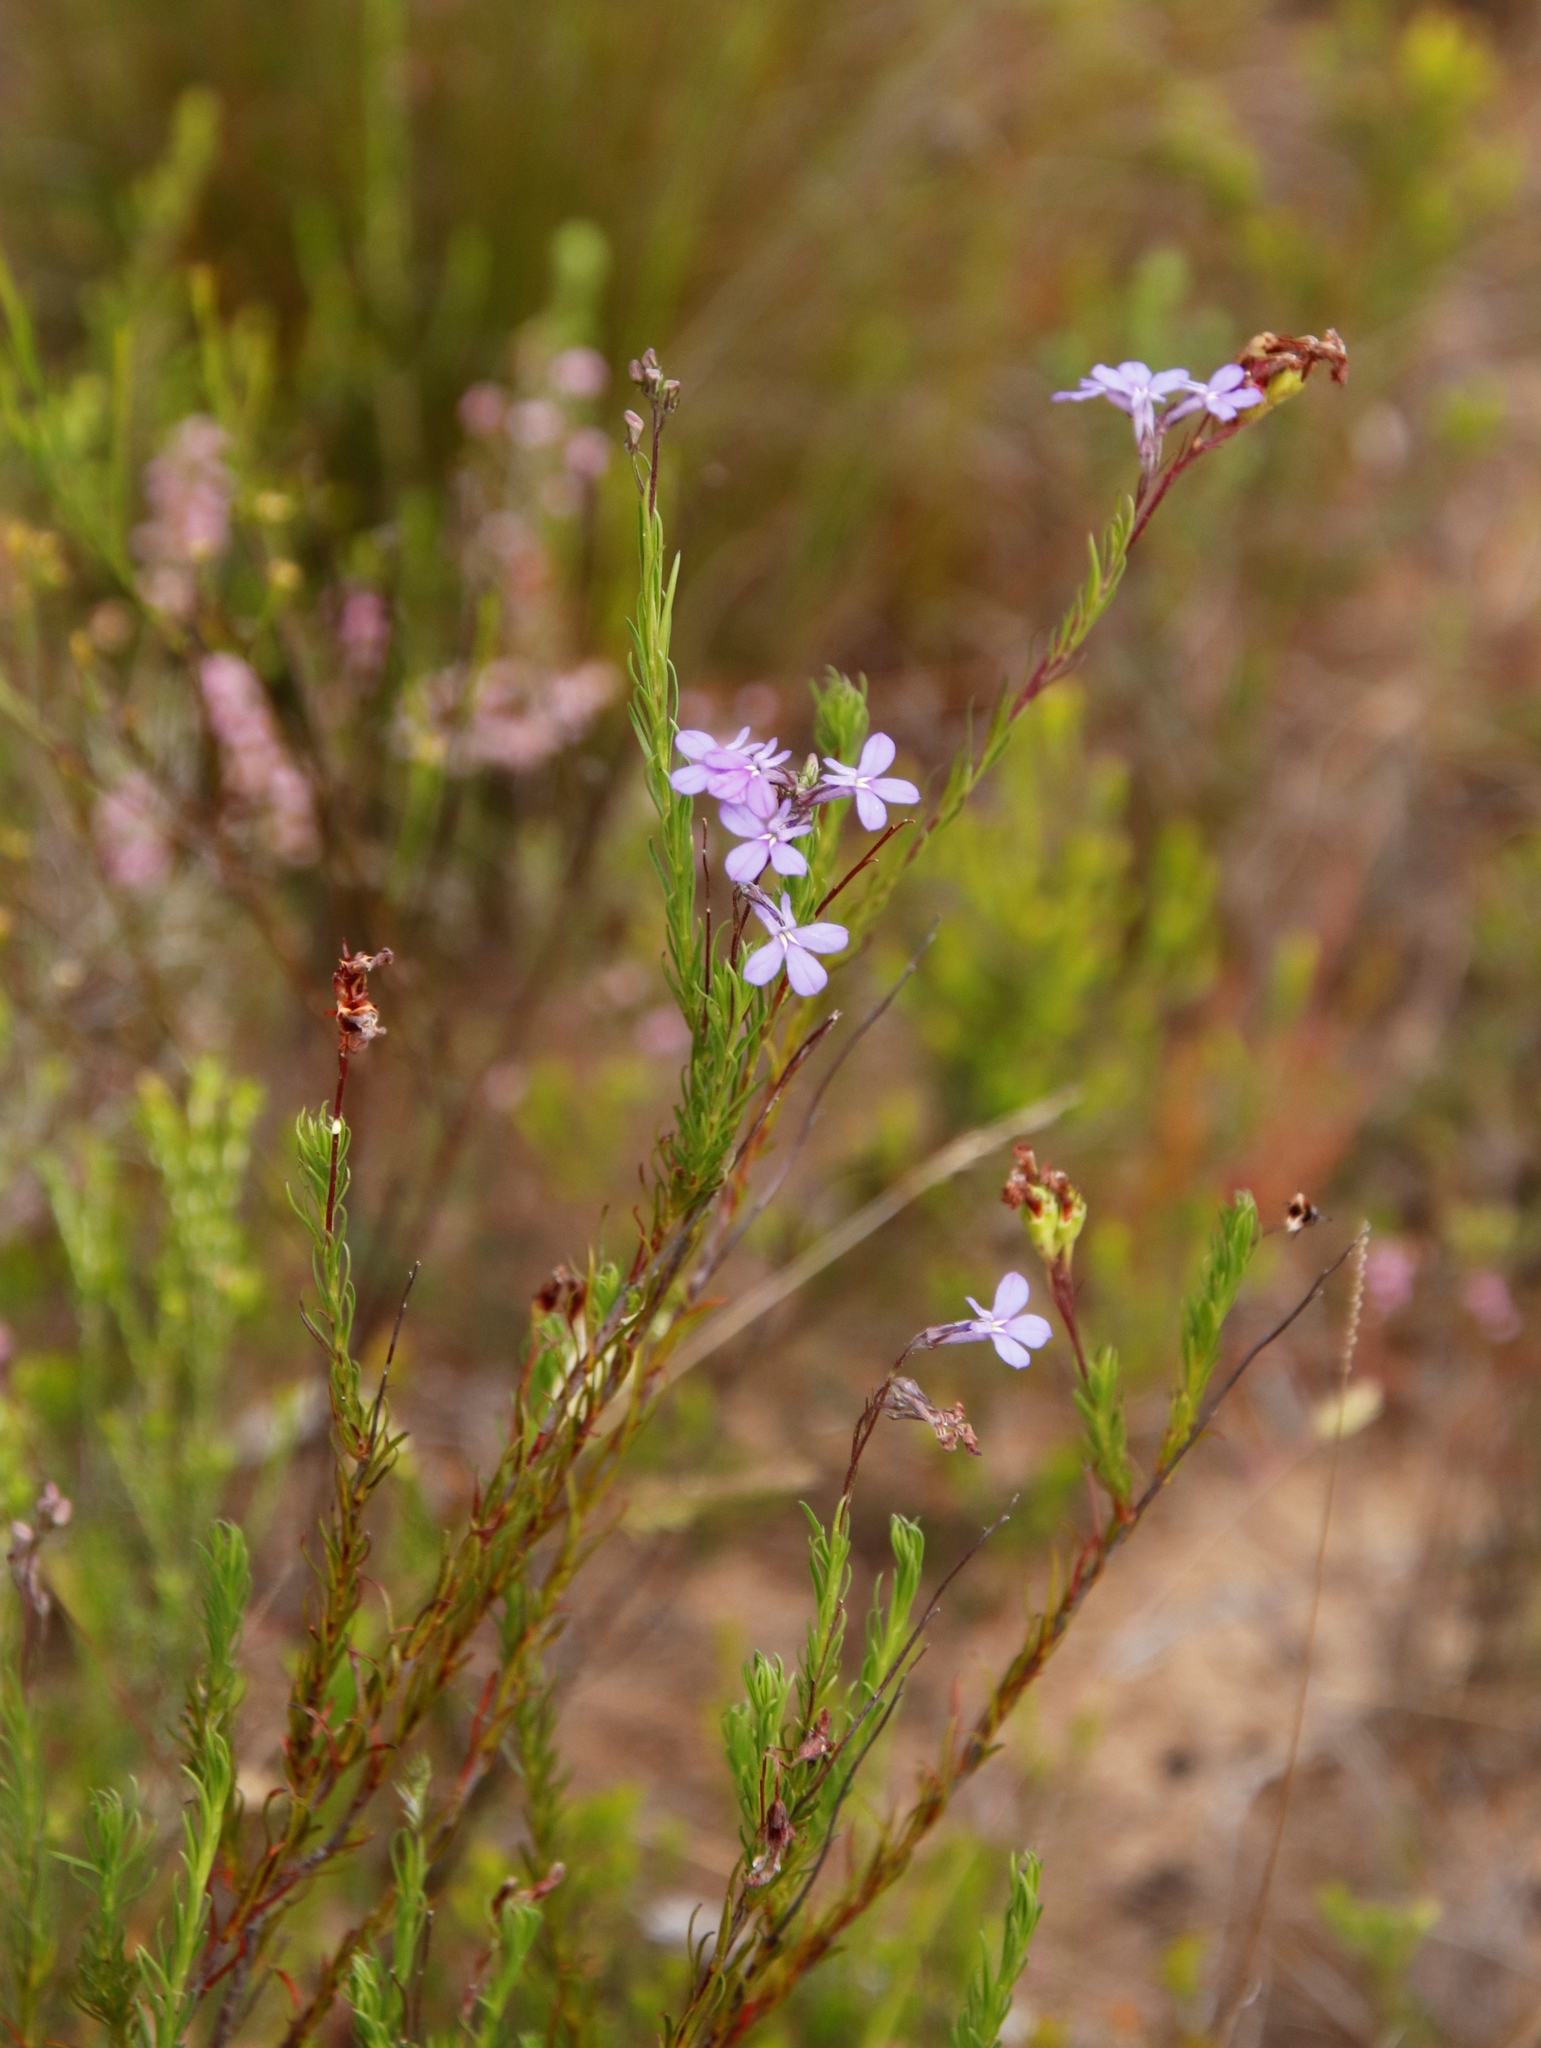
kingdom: Plantae
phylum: Tracheophyta
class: Magnoliopsida
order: Asterales
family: Campanulaceae
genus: Lobelia
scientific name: Lobelia pinifolia
